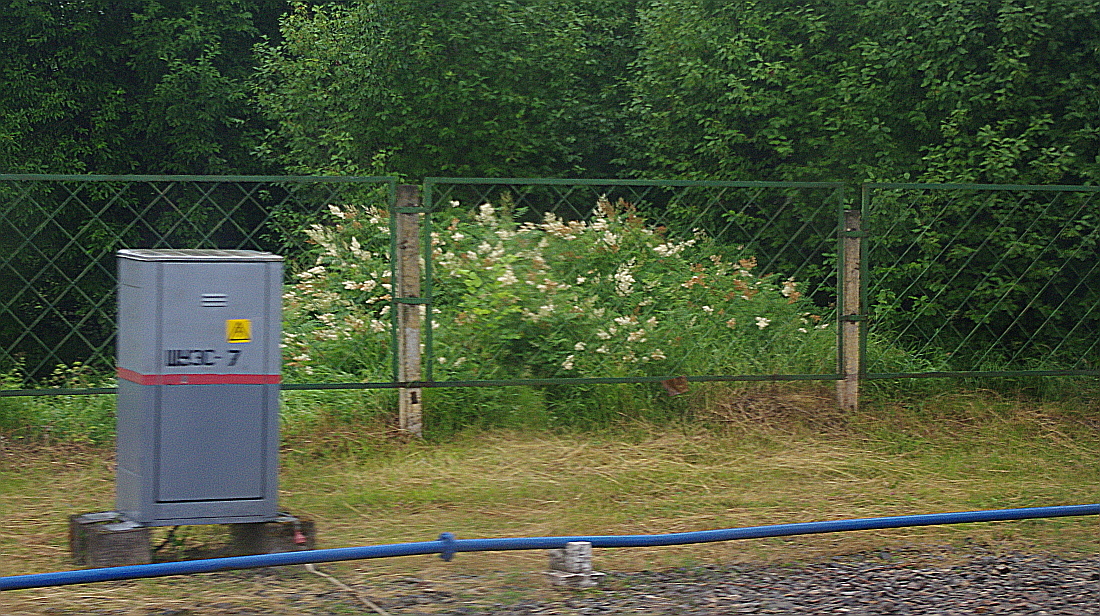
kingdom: Plantae
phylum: Tracheophyta
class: Magnoliopsida
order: Rosales
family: Rosaceae
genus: Sorbaria
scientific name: Sorbaria sorbifolia
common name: False spiraea
